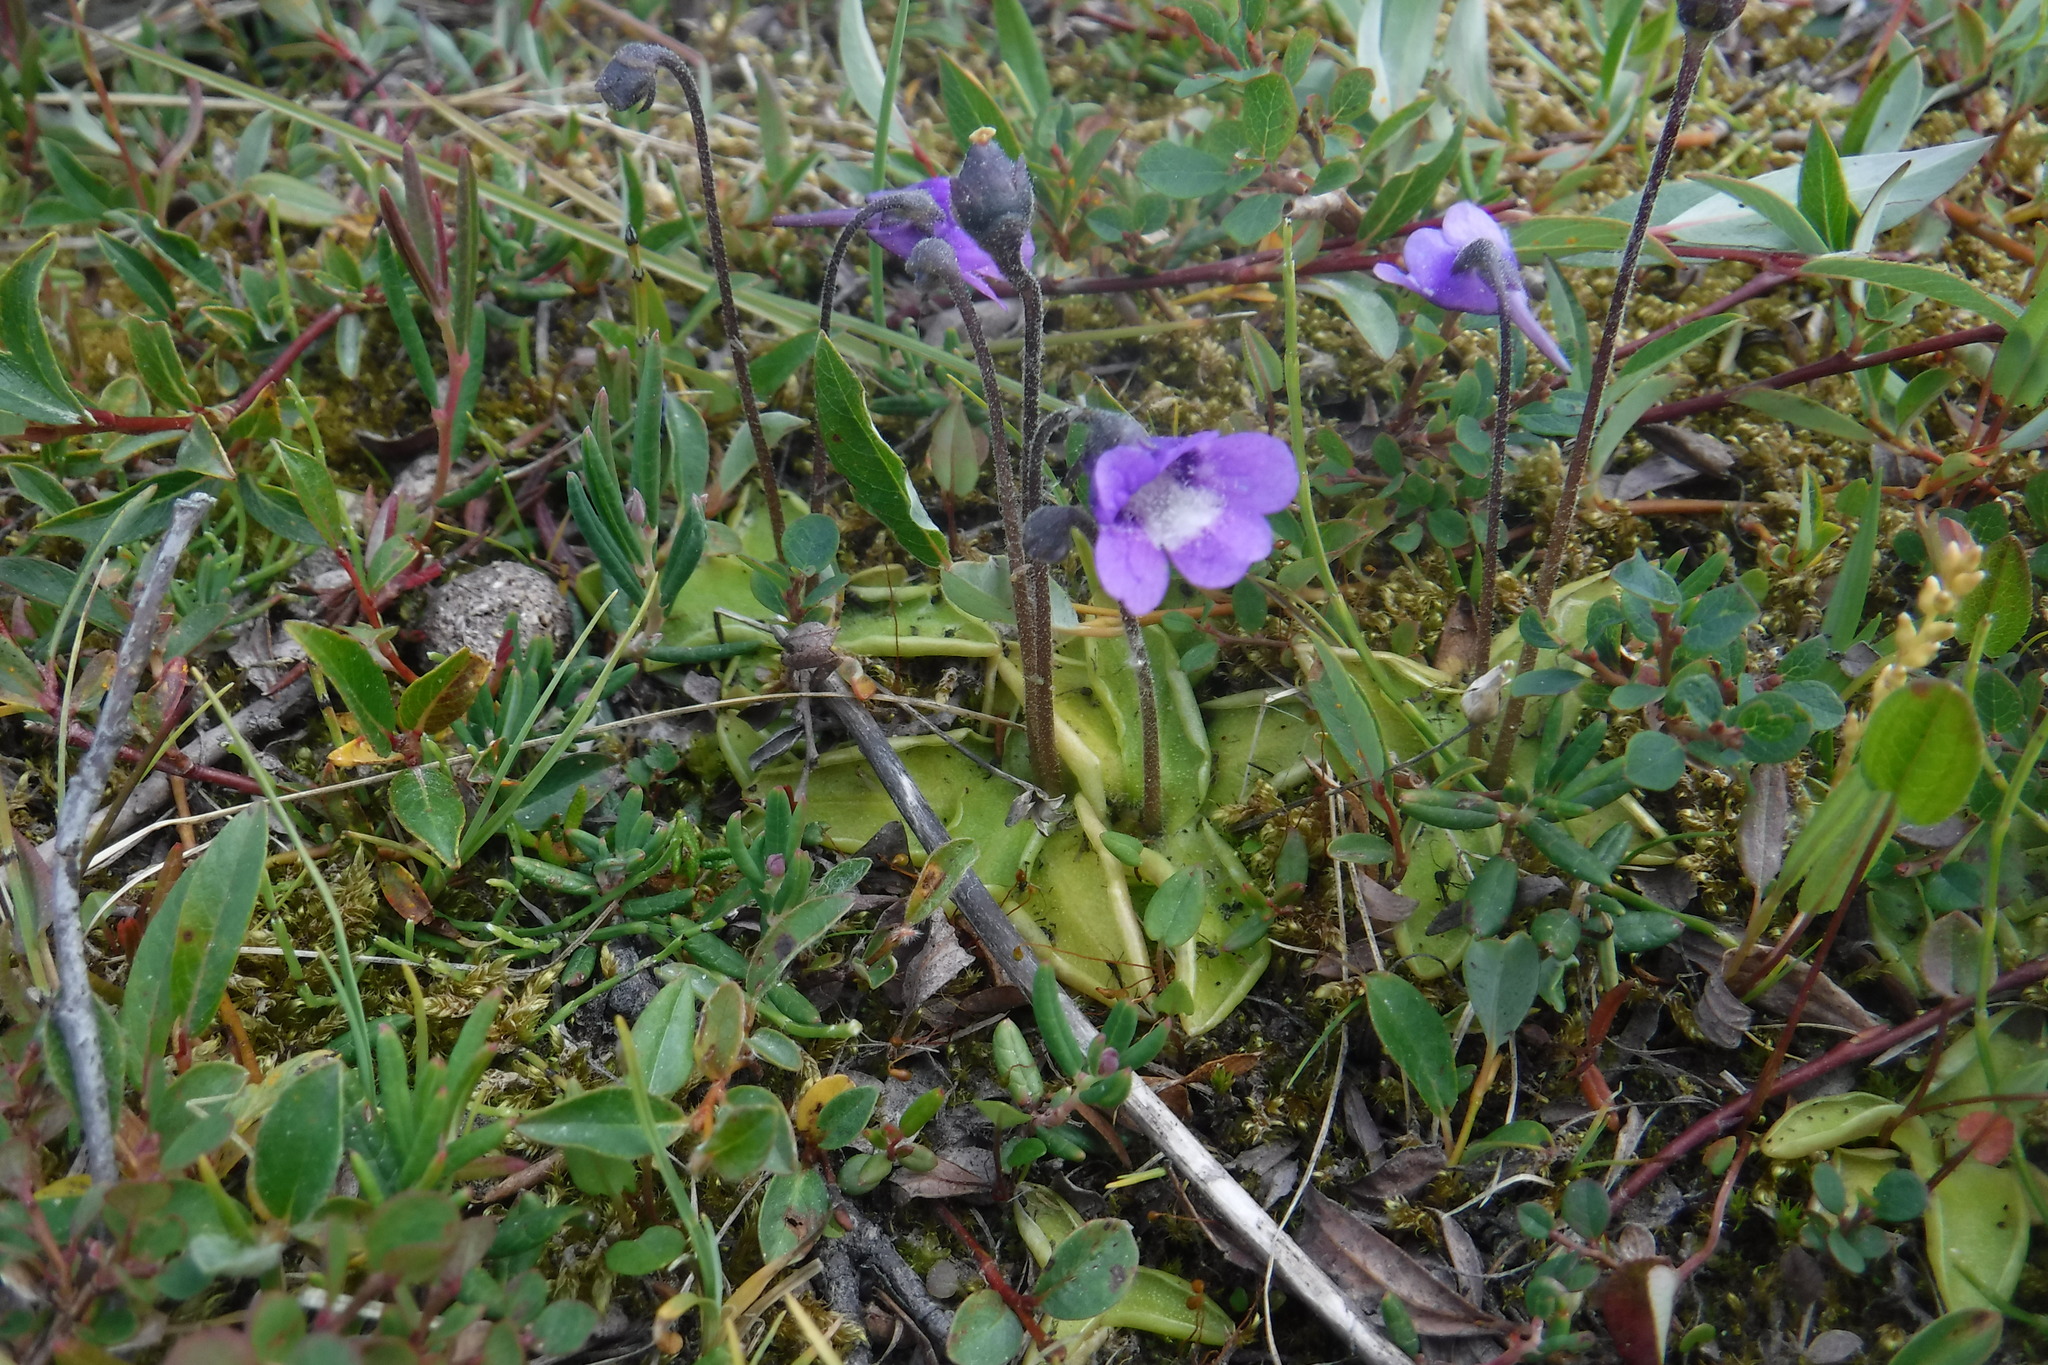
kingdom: Plantae
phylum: Tracheophyta
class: Magnoliopsida
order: Lamiales
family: Lentibulariaceae
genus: Pinguicula
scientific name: Pinguicula vulgaris
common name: Common butterwort
